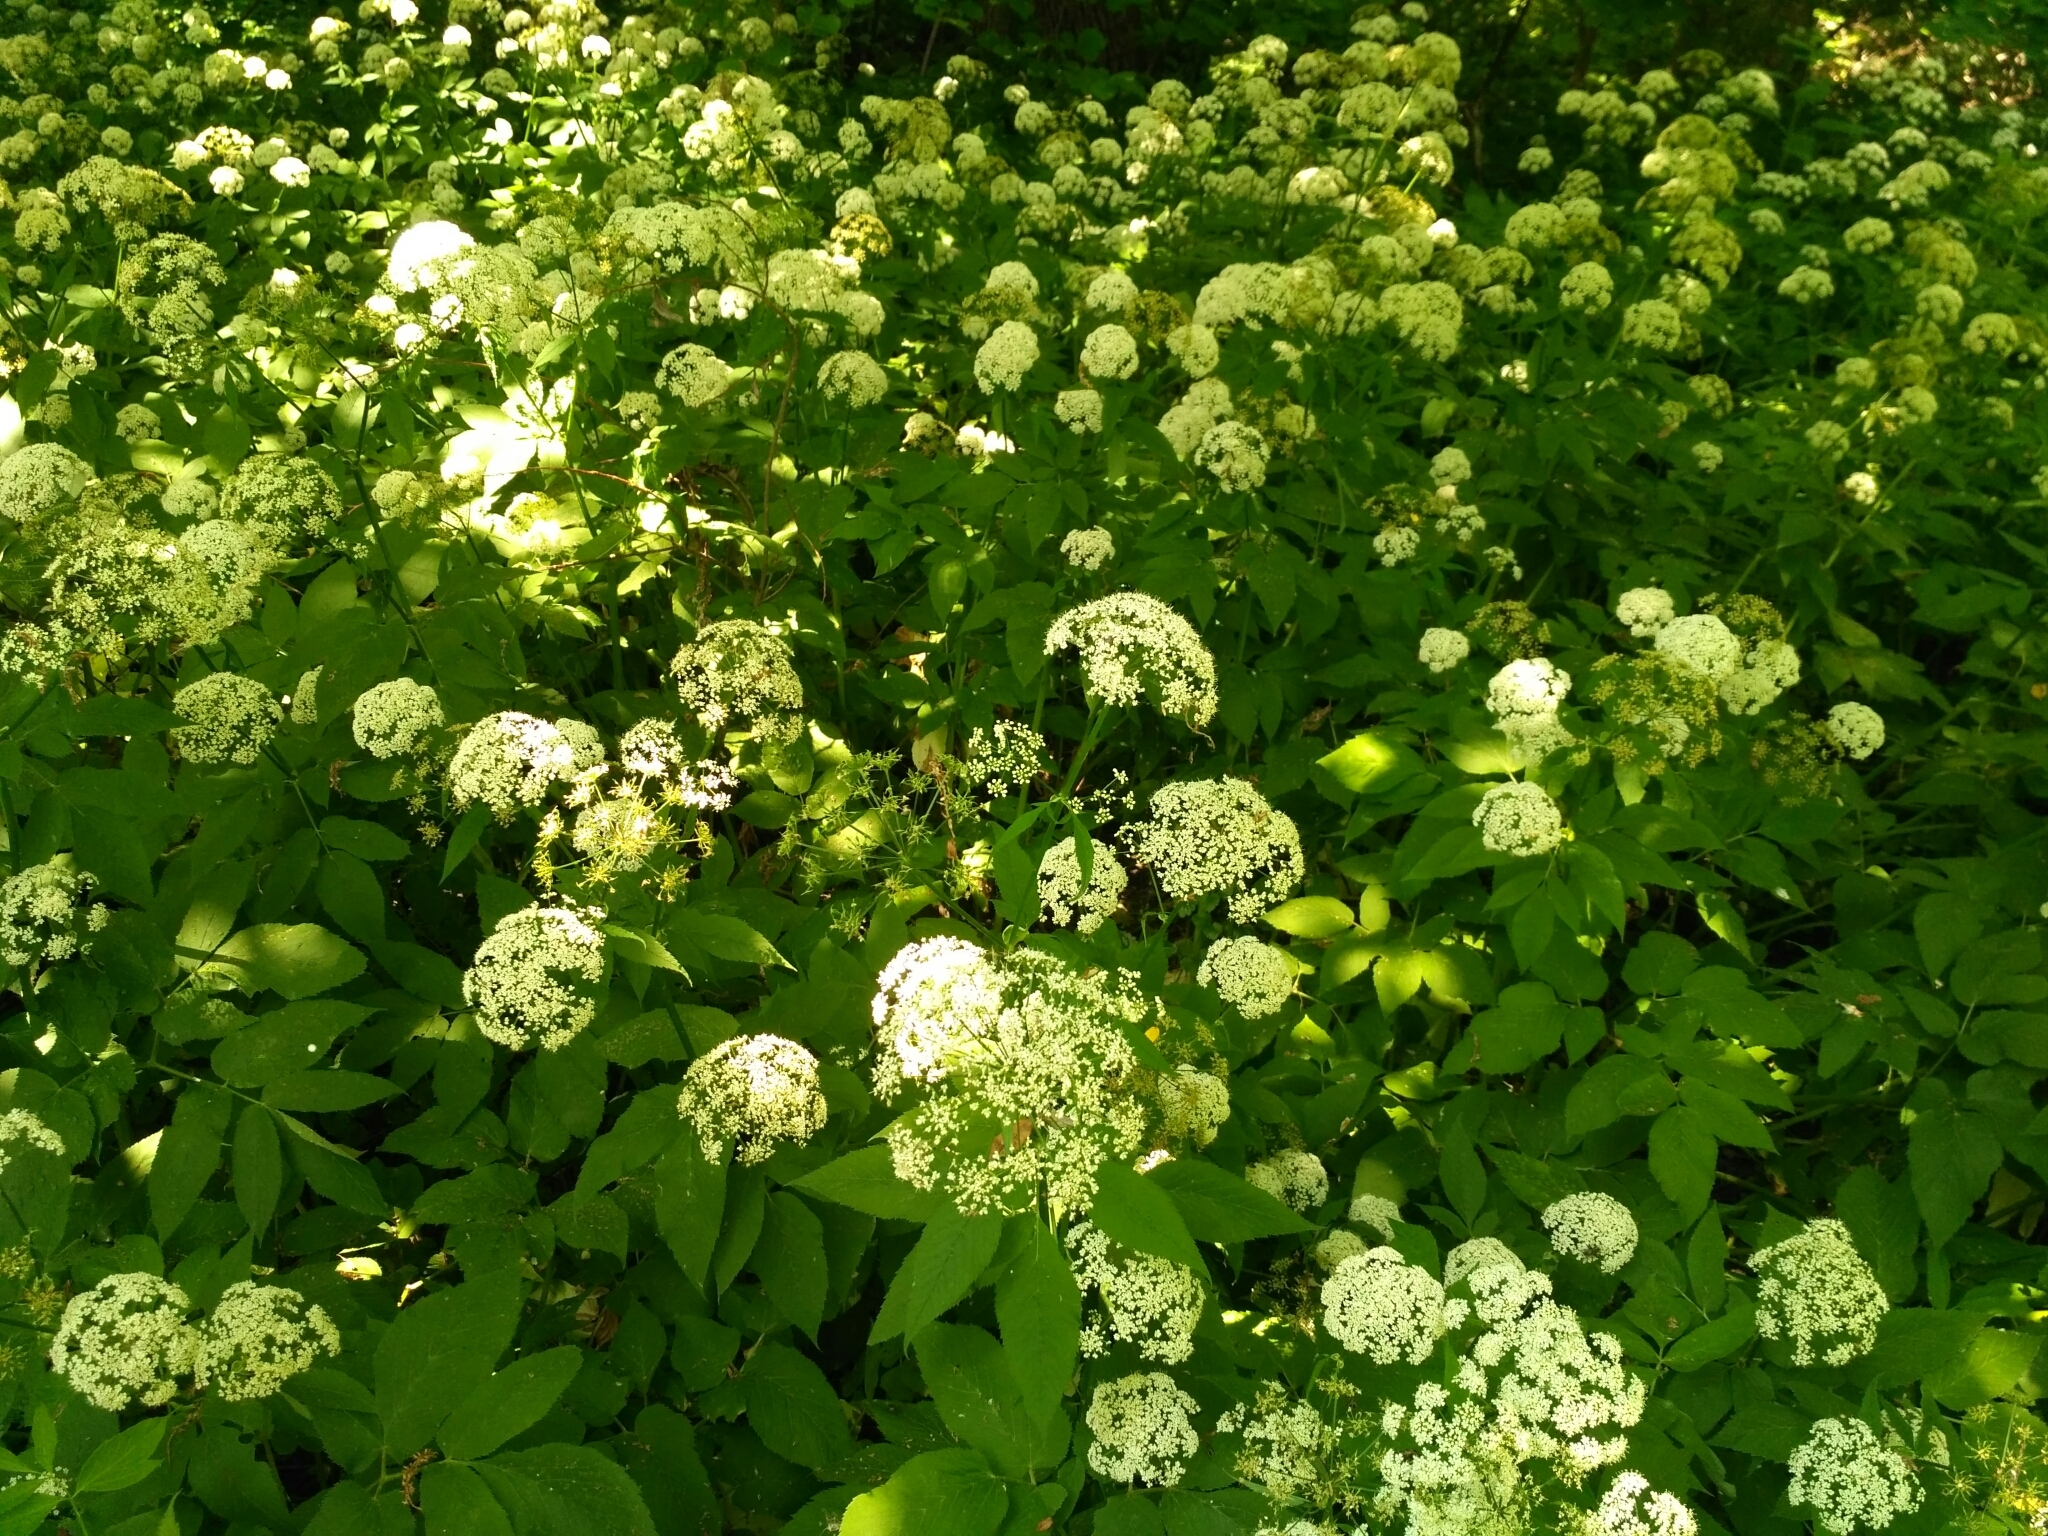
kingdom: Plantae
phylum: Tracheophyta
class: Magnoliopsida
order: Apiales
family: Apiaceae
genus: Aegopodium
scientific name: Aegopodium podagraria
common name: Ground-elder
